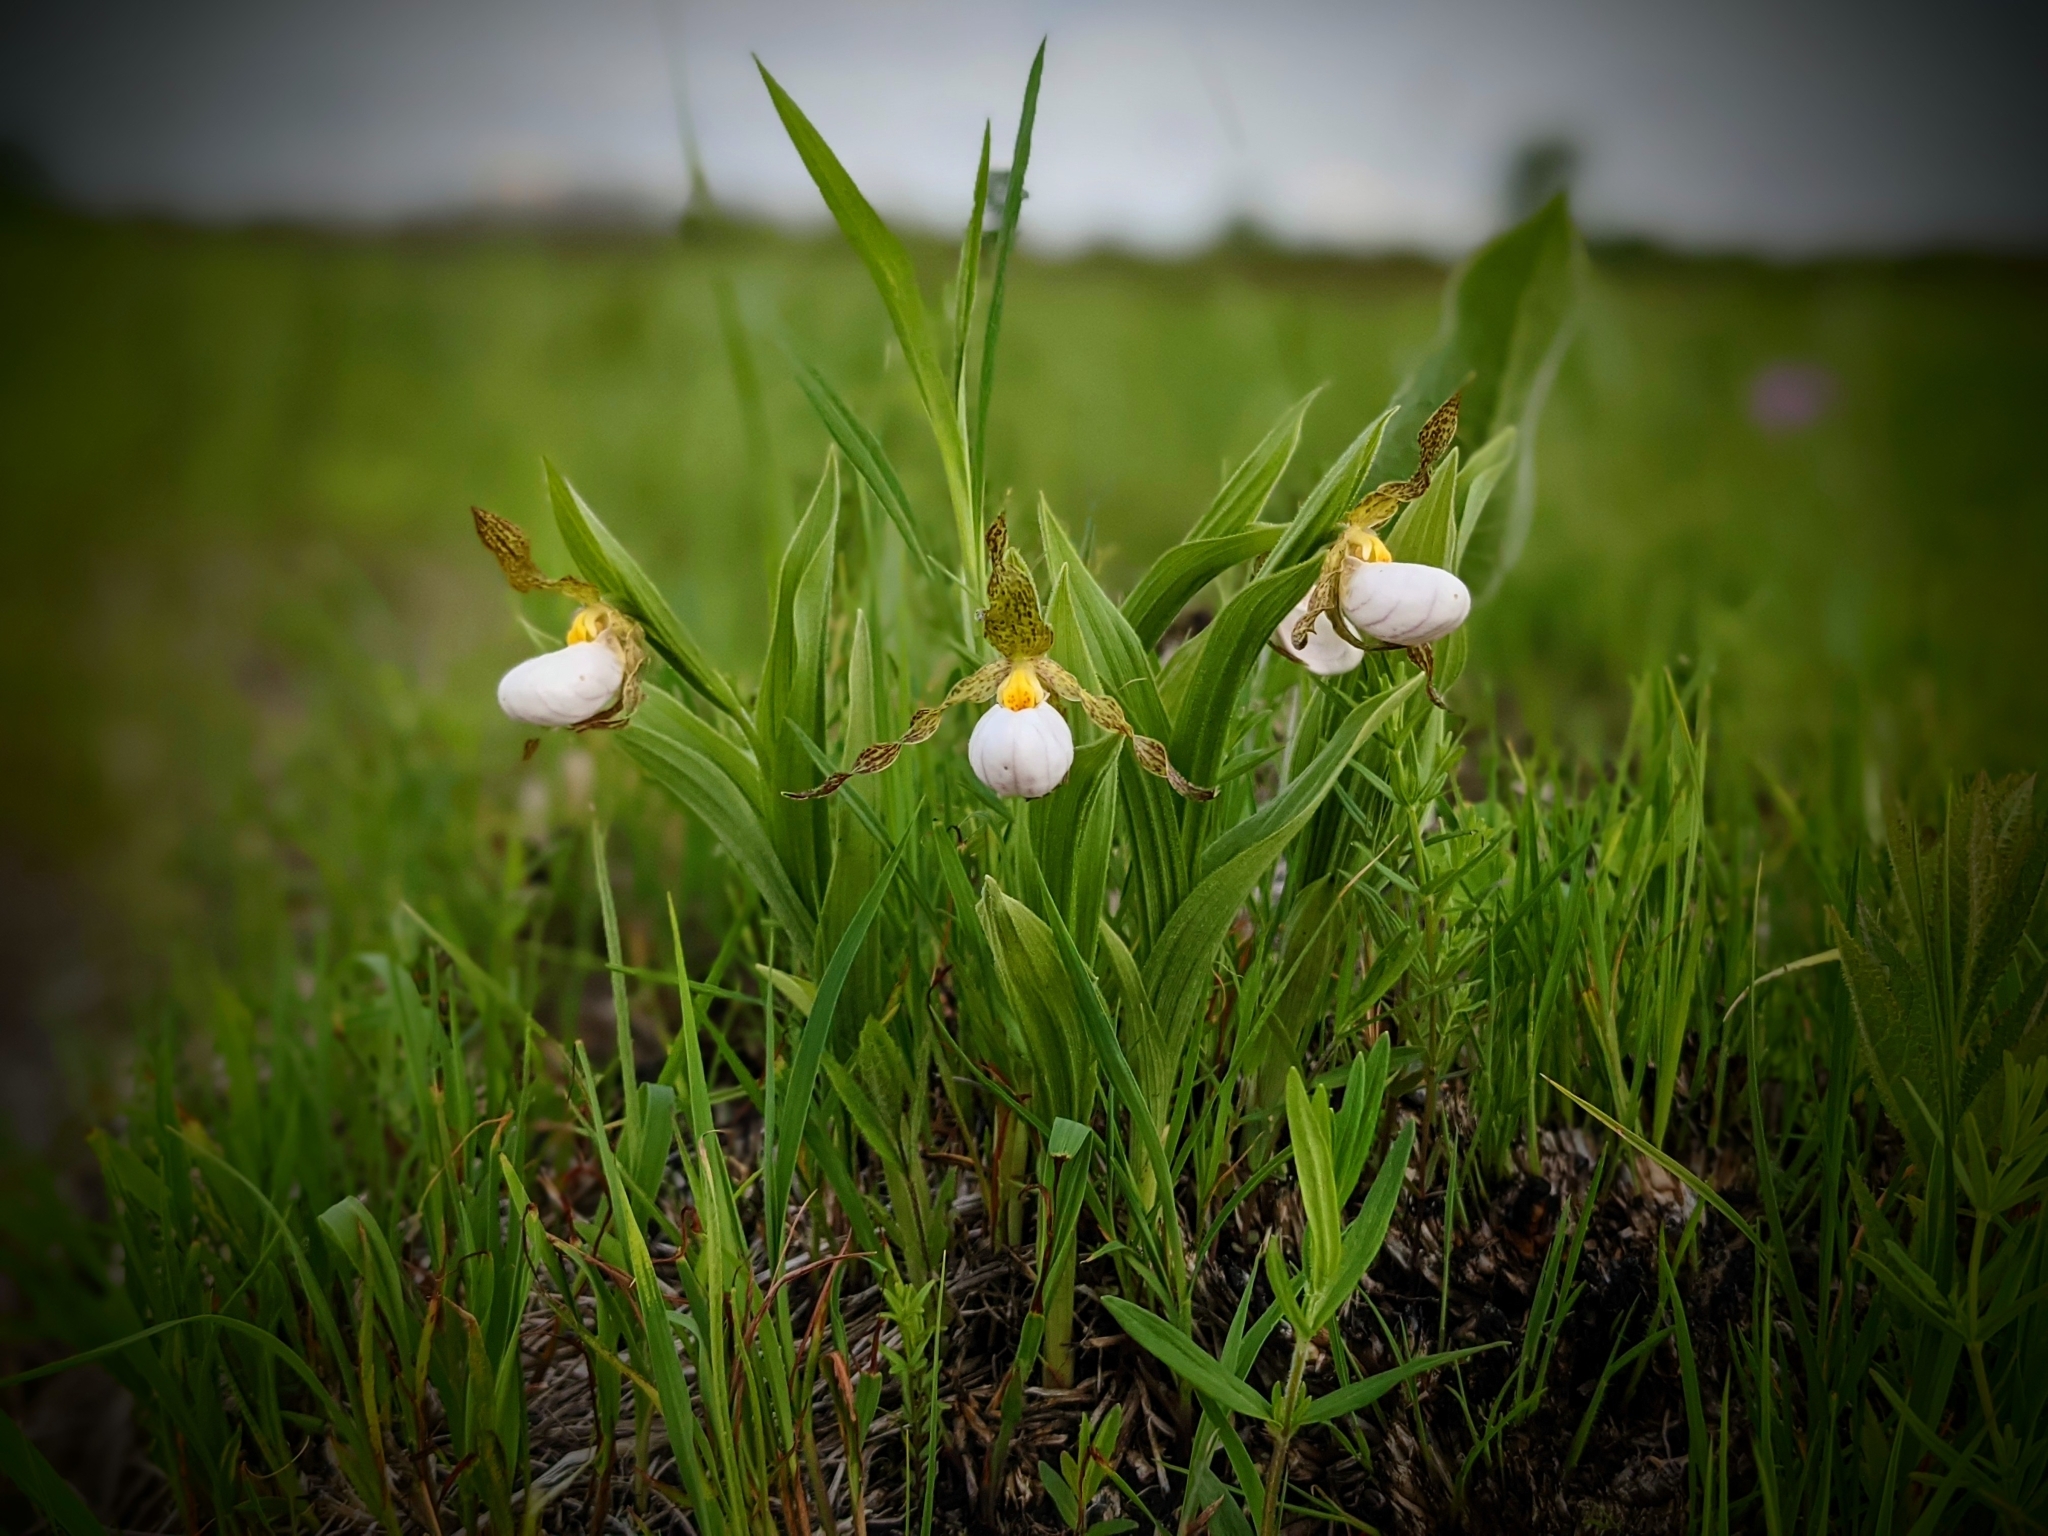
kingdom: Plantae
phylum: Tracheophyta
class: Liliopsida
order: Asparagales
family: Orchidaceae
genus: Cypripedium
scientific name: Cypripedium candidum
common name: White lady's-slipper
